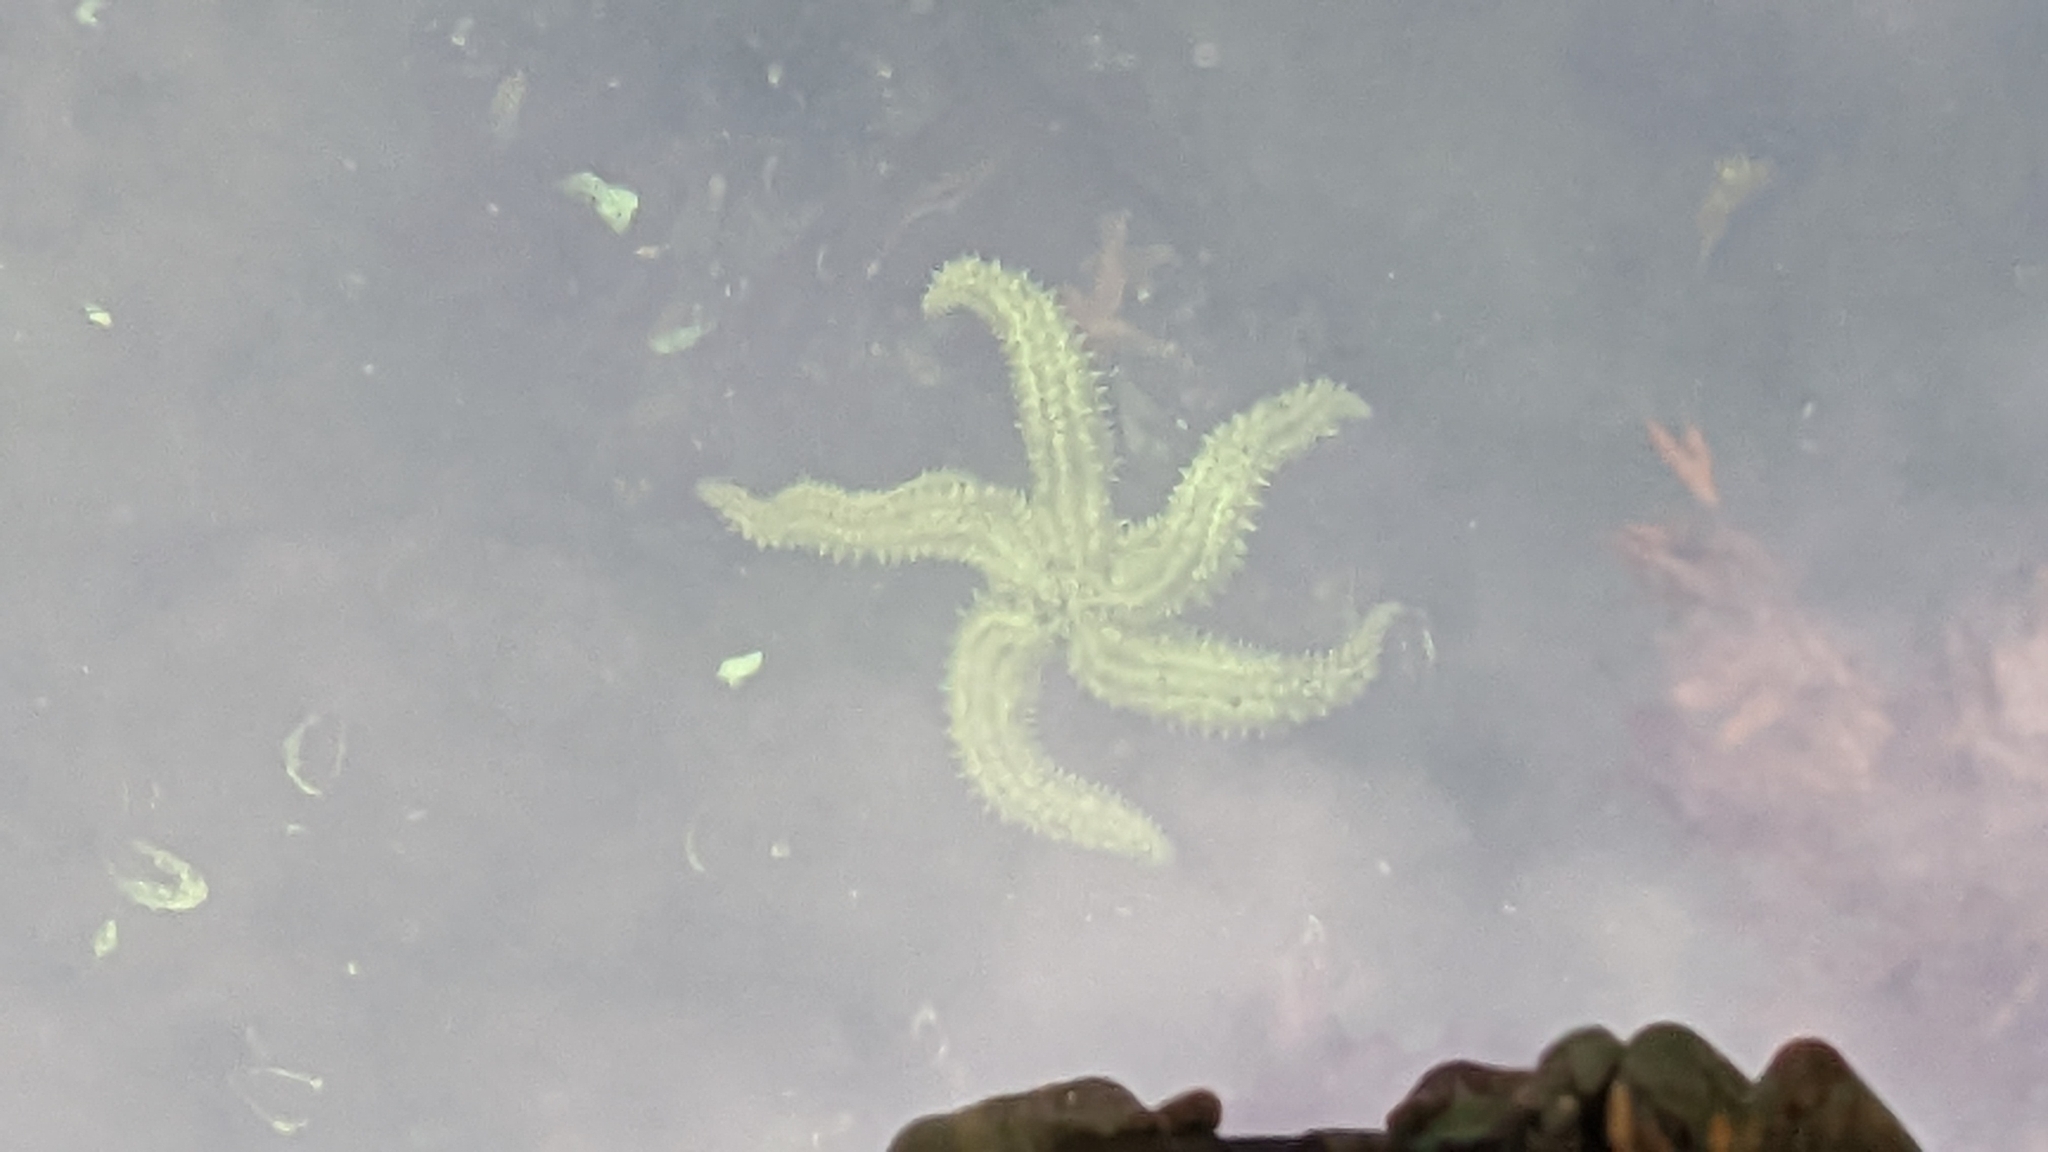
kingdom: Animalia
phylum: Echinodermata
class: Asteroidea
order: Forcipulatida
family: Asteriidae
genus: Marthasterias
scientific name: Marthasterias glacialis
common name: Spiny starfish
